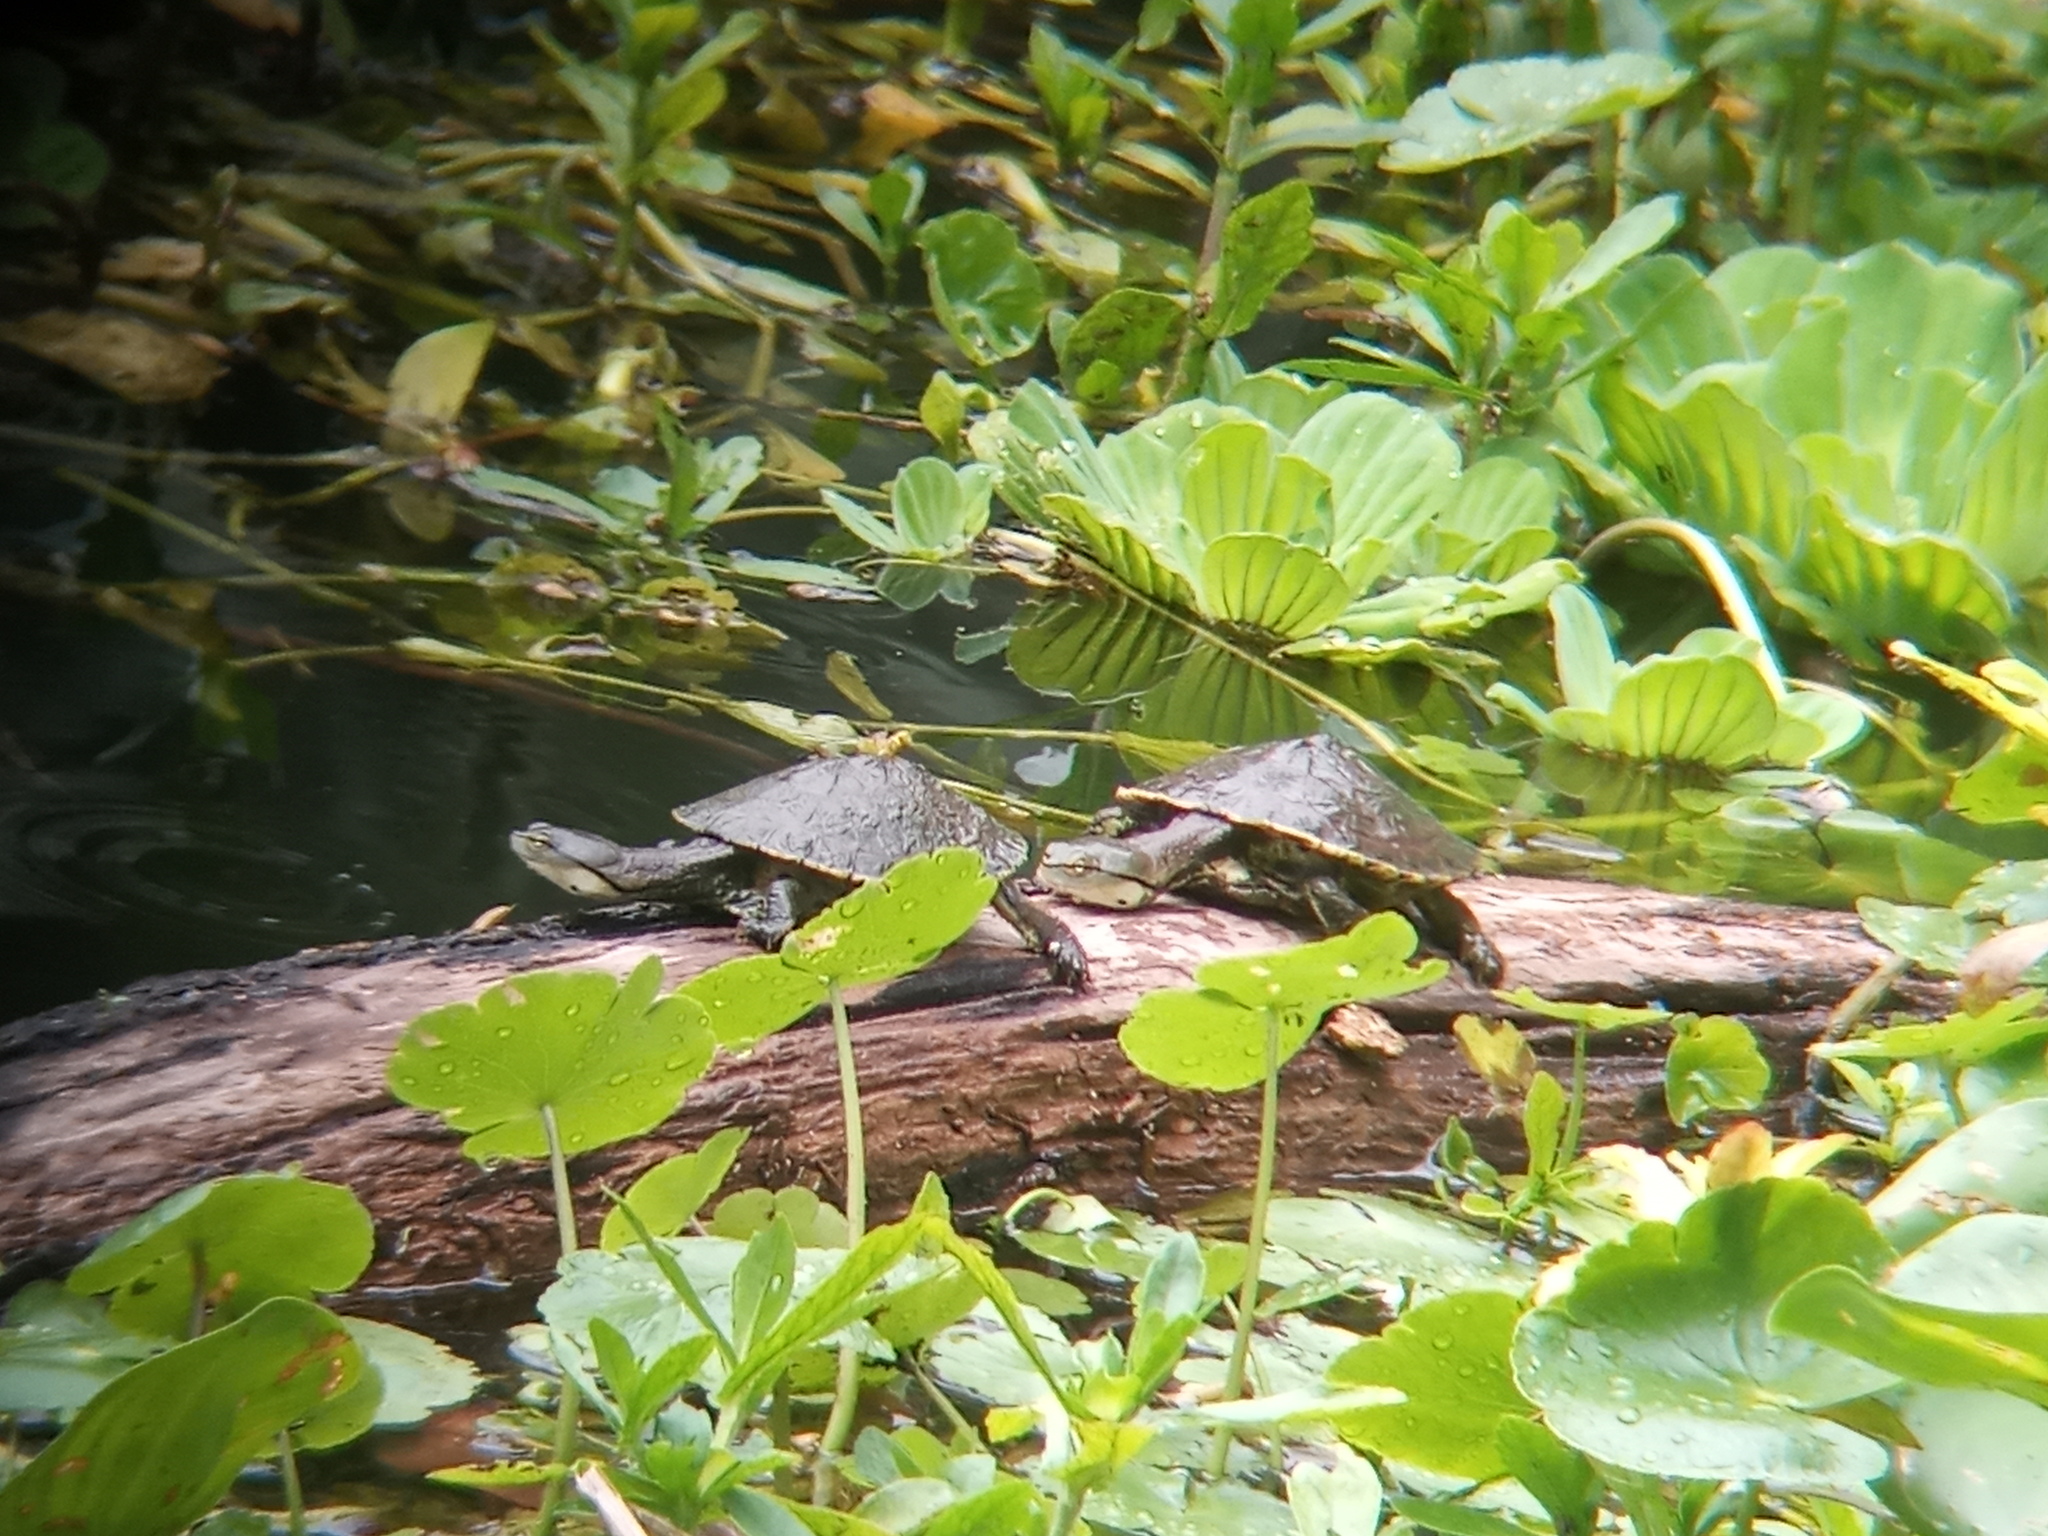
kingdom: Animalia
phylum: Chordata
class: Testudines
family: Chelidae
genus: Phrynops
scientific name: Phrynops hilarii
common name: Side-necked turtle of saint hillaire
